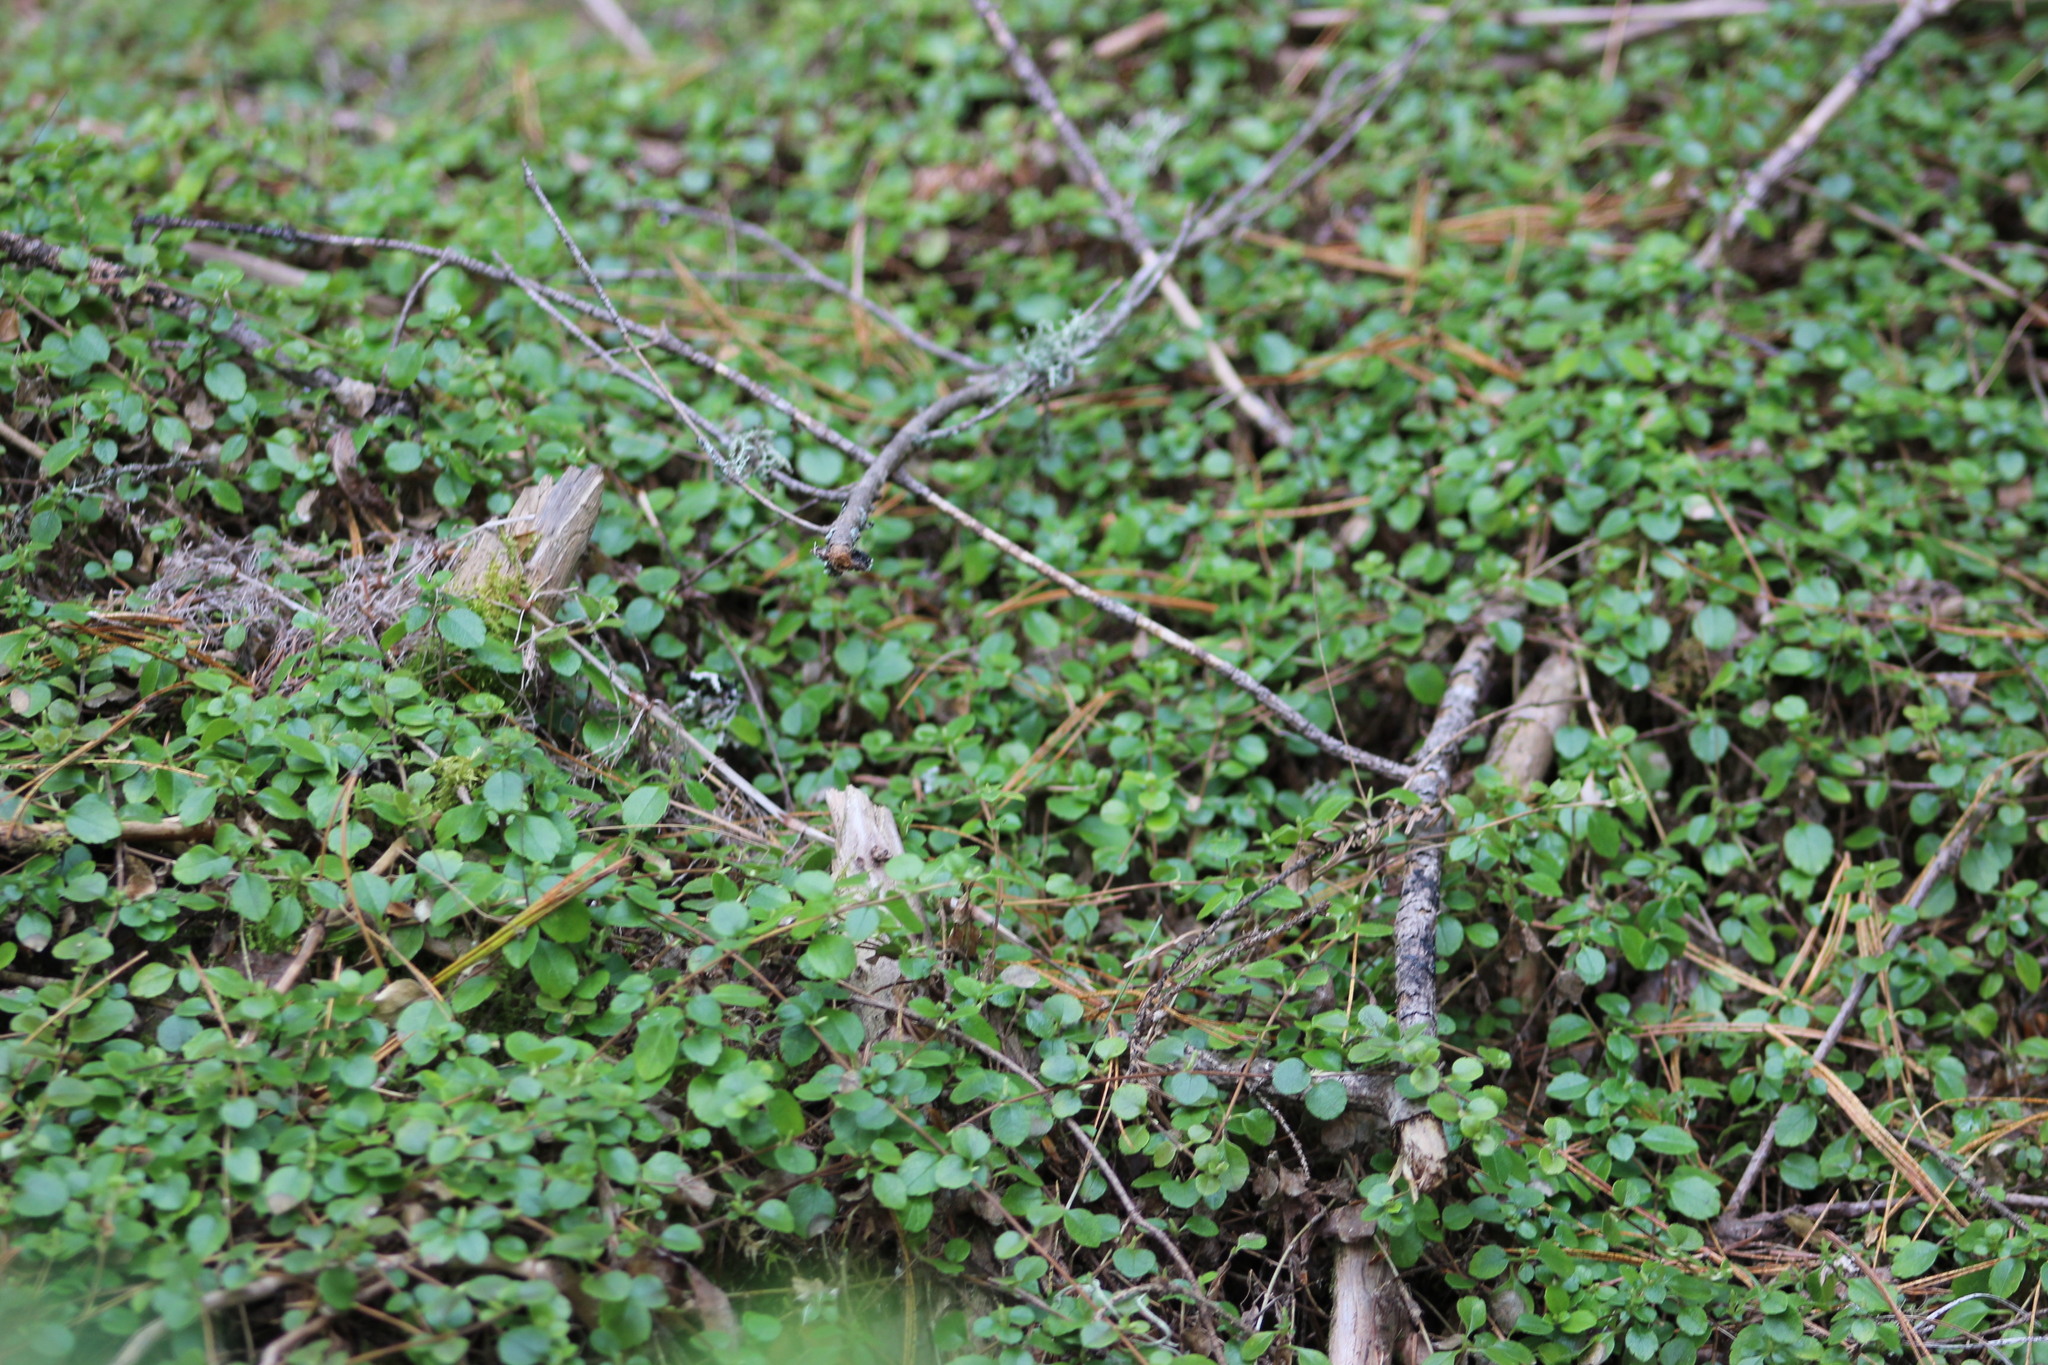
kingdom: Plantae
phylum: Tracheophyta
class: Magnoliopsida
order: Dipsacales
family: Caprifoliaceae
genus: Linnaea
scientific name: Linnaea borealis
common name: Twinflower
